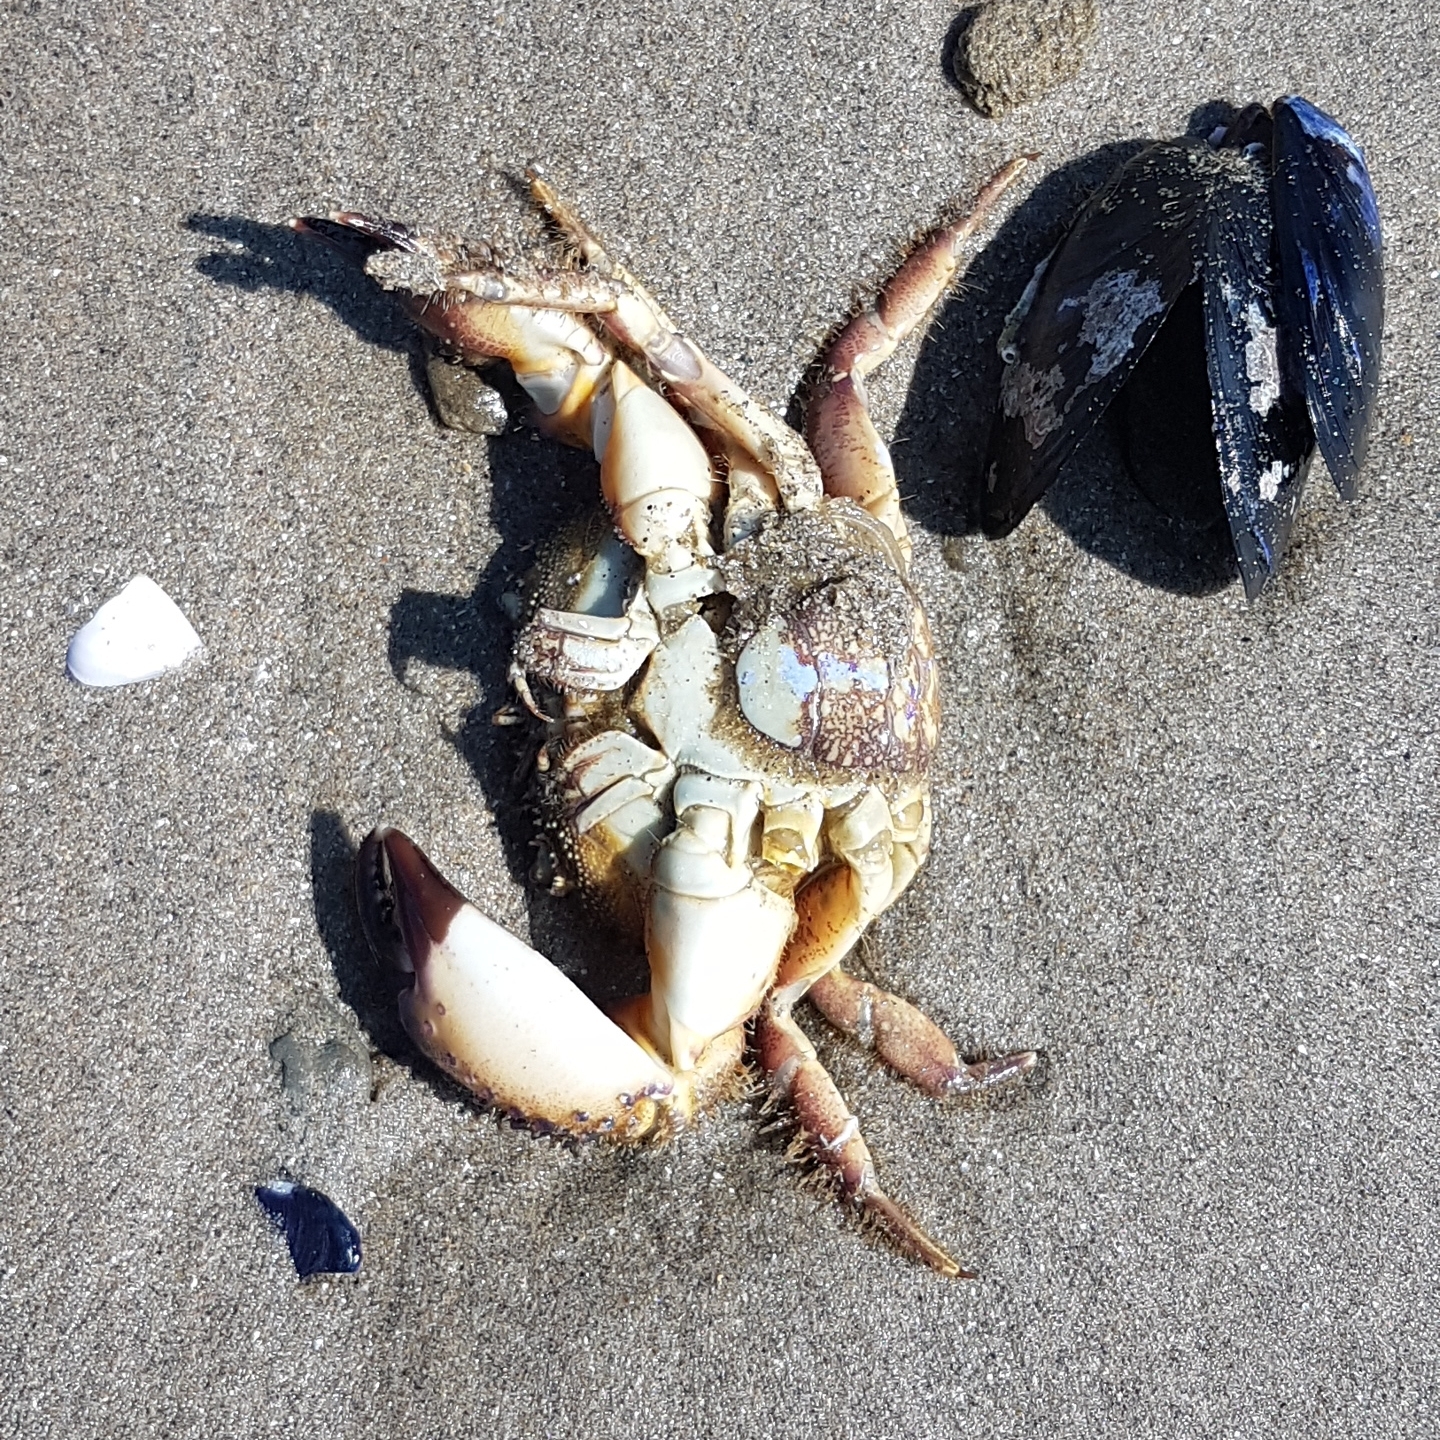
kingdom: Animalia
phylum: Arthropoda
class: Malacostraca
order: Decapoda
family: Eriphiidae
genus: Eriphia
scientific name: Eriphia verrucosa
